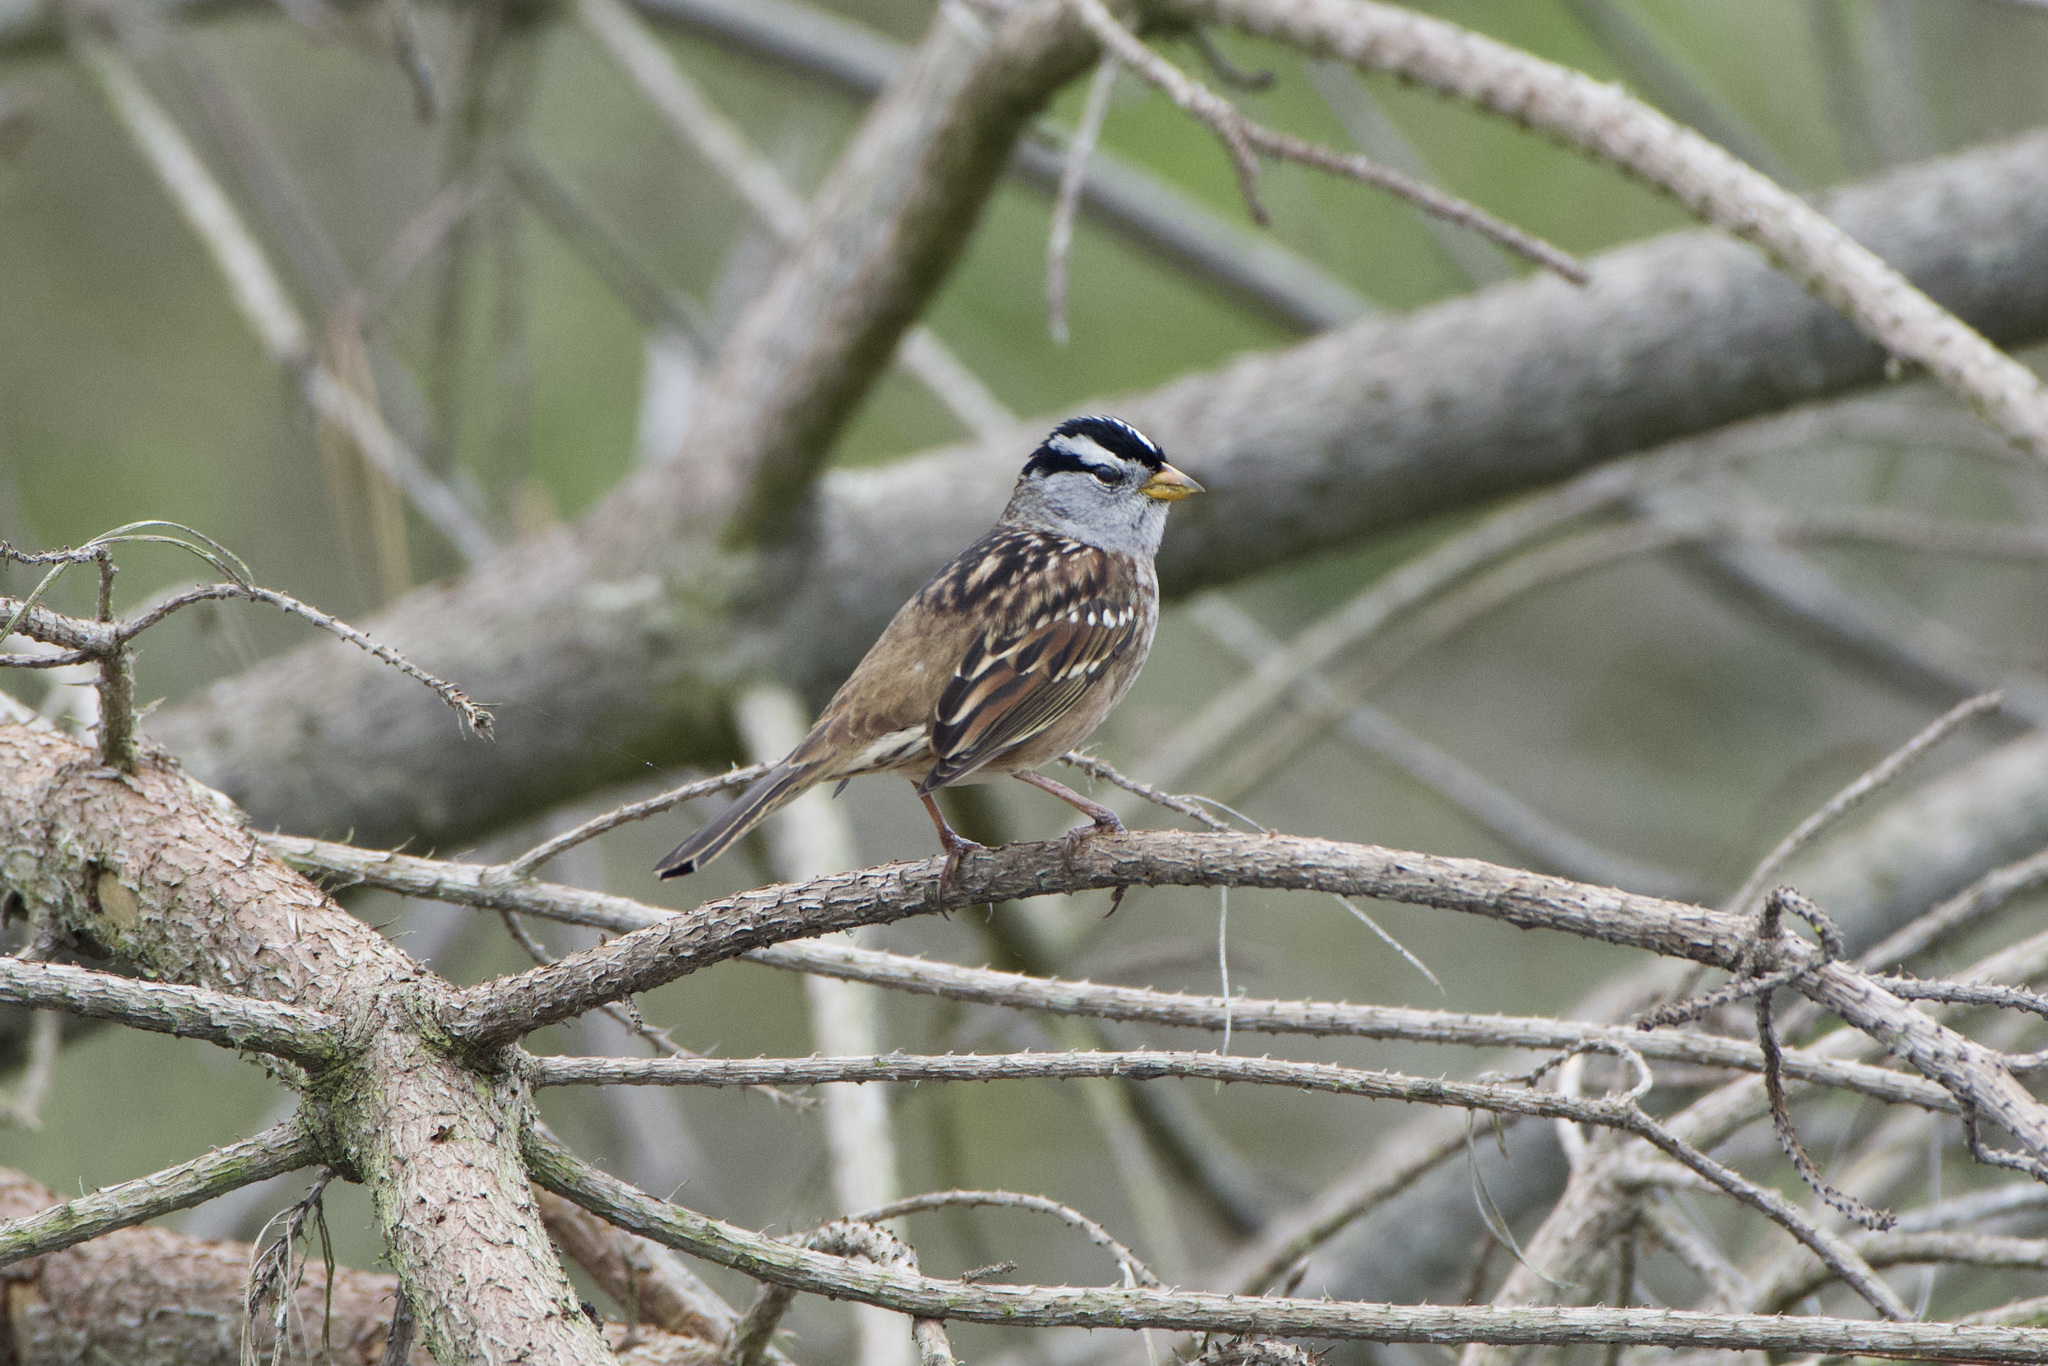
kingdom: Animalia
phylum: Chordata
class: Aves
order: Passeriformes
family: Passerellidae
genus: Zonotrichia
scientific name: Zonotrichia leucophrys
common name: White-crowned sparrow
